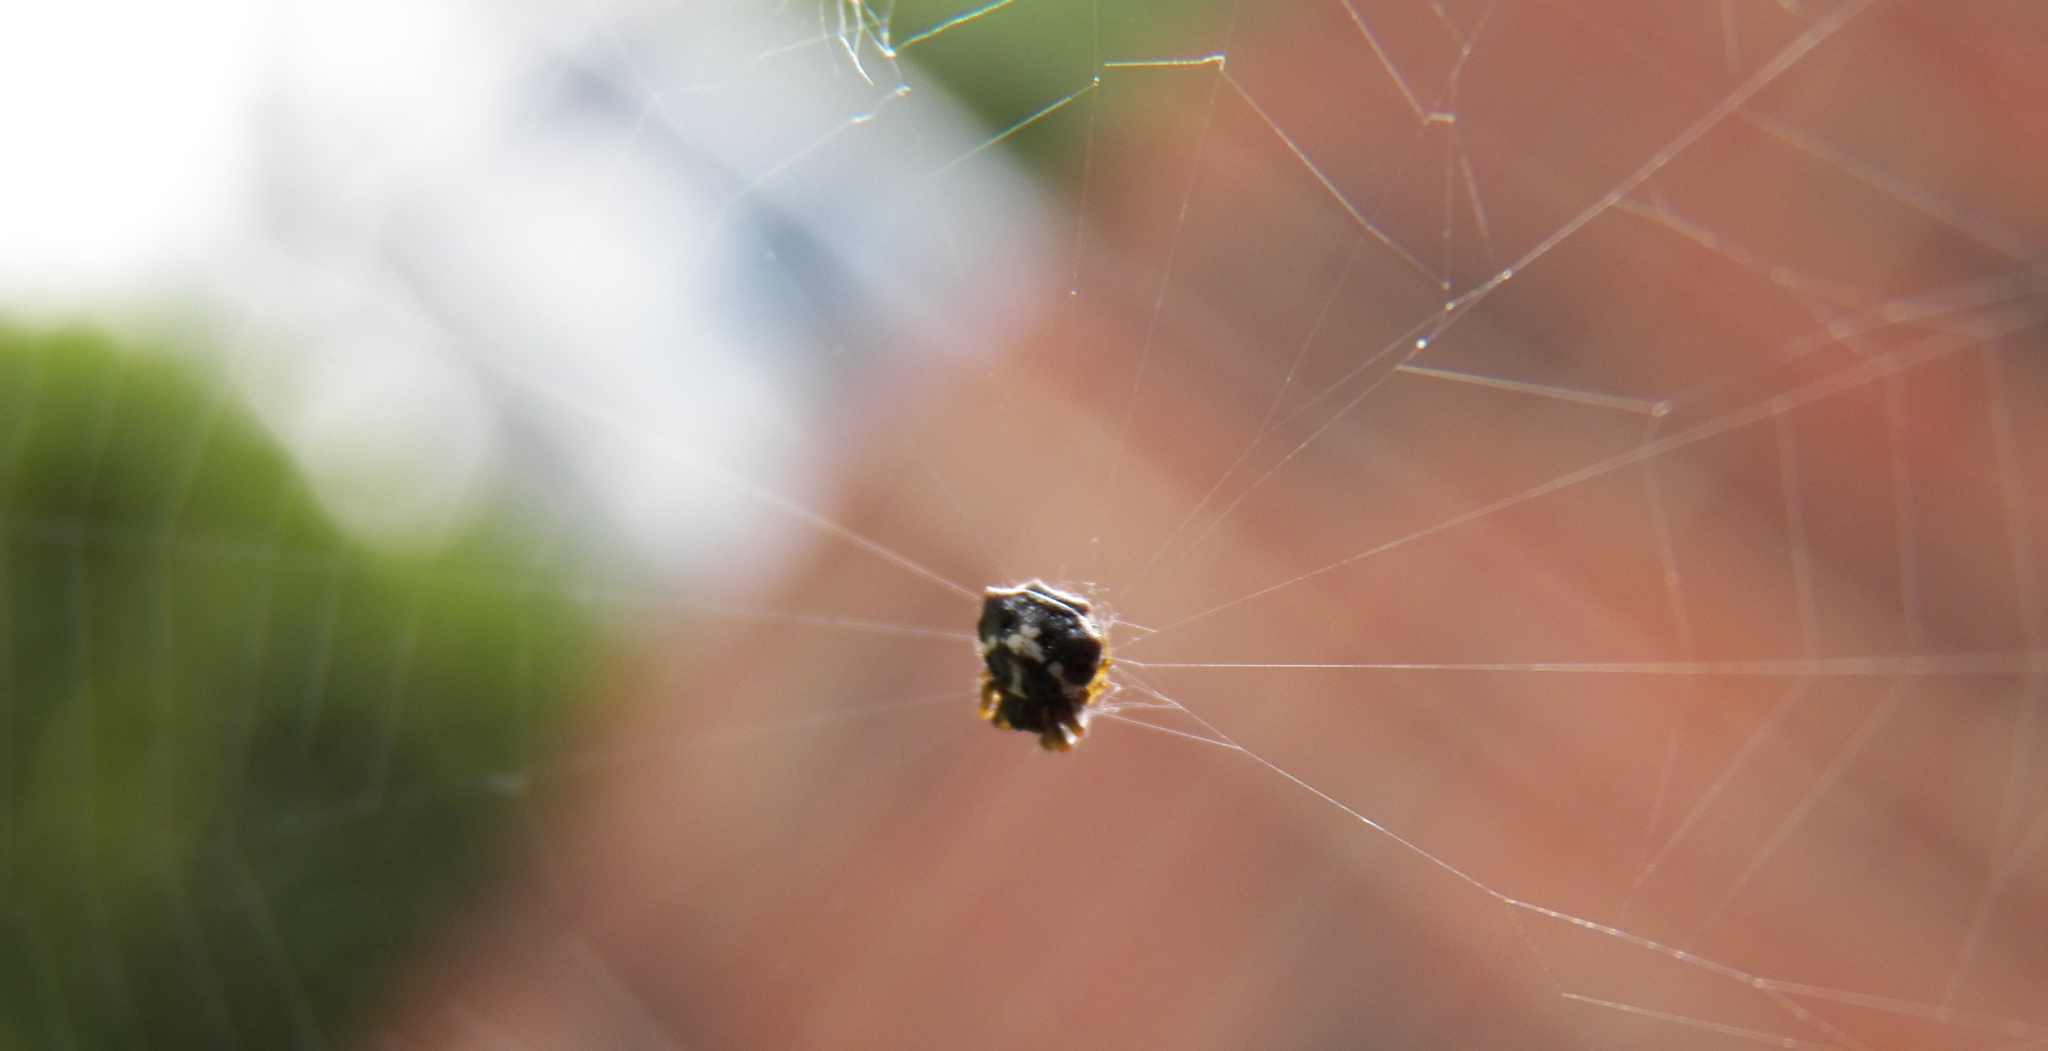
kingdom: Animalia
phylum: Arthropoda
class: Arachnida
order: Araneae
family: Araneidae
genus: Gasteracantha
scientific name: Gasteracantha cancriformis
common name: Orb weavers
